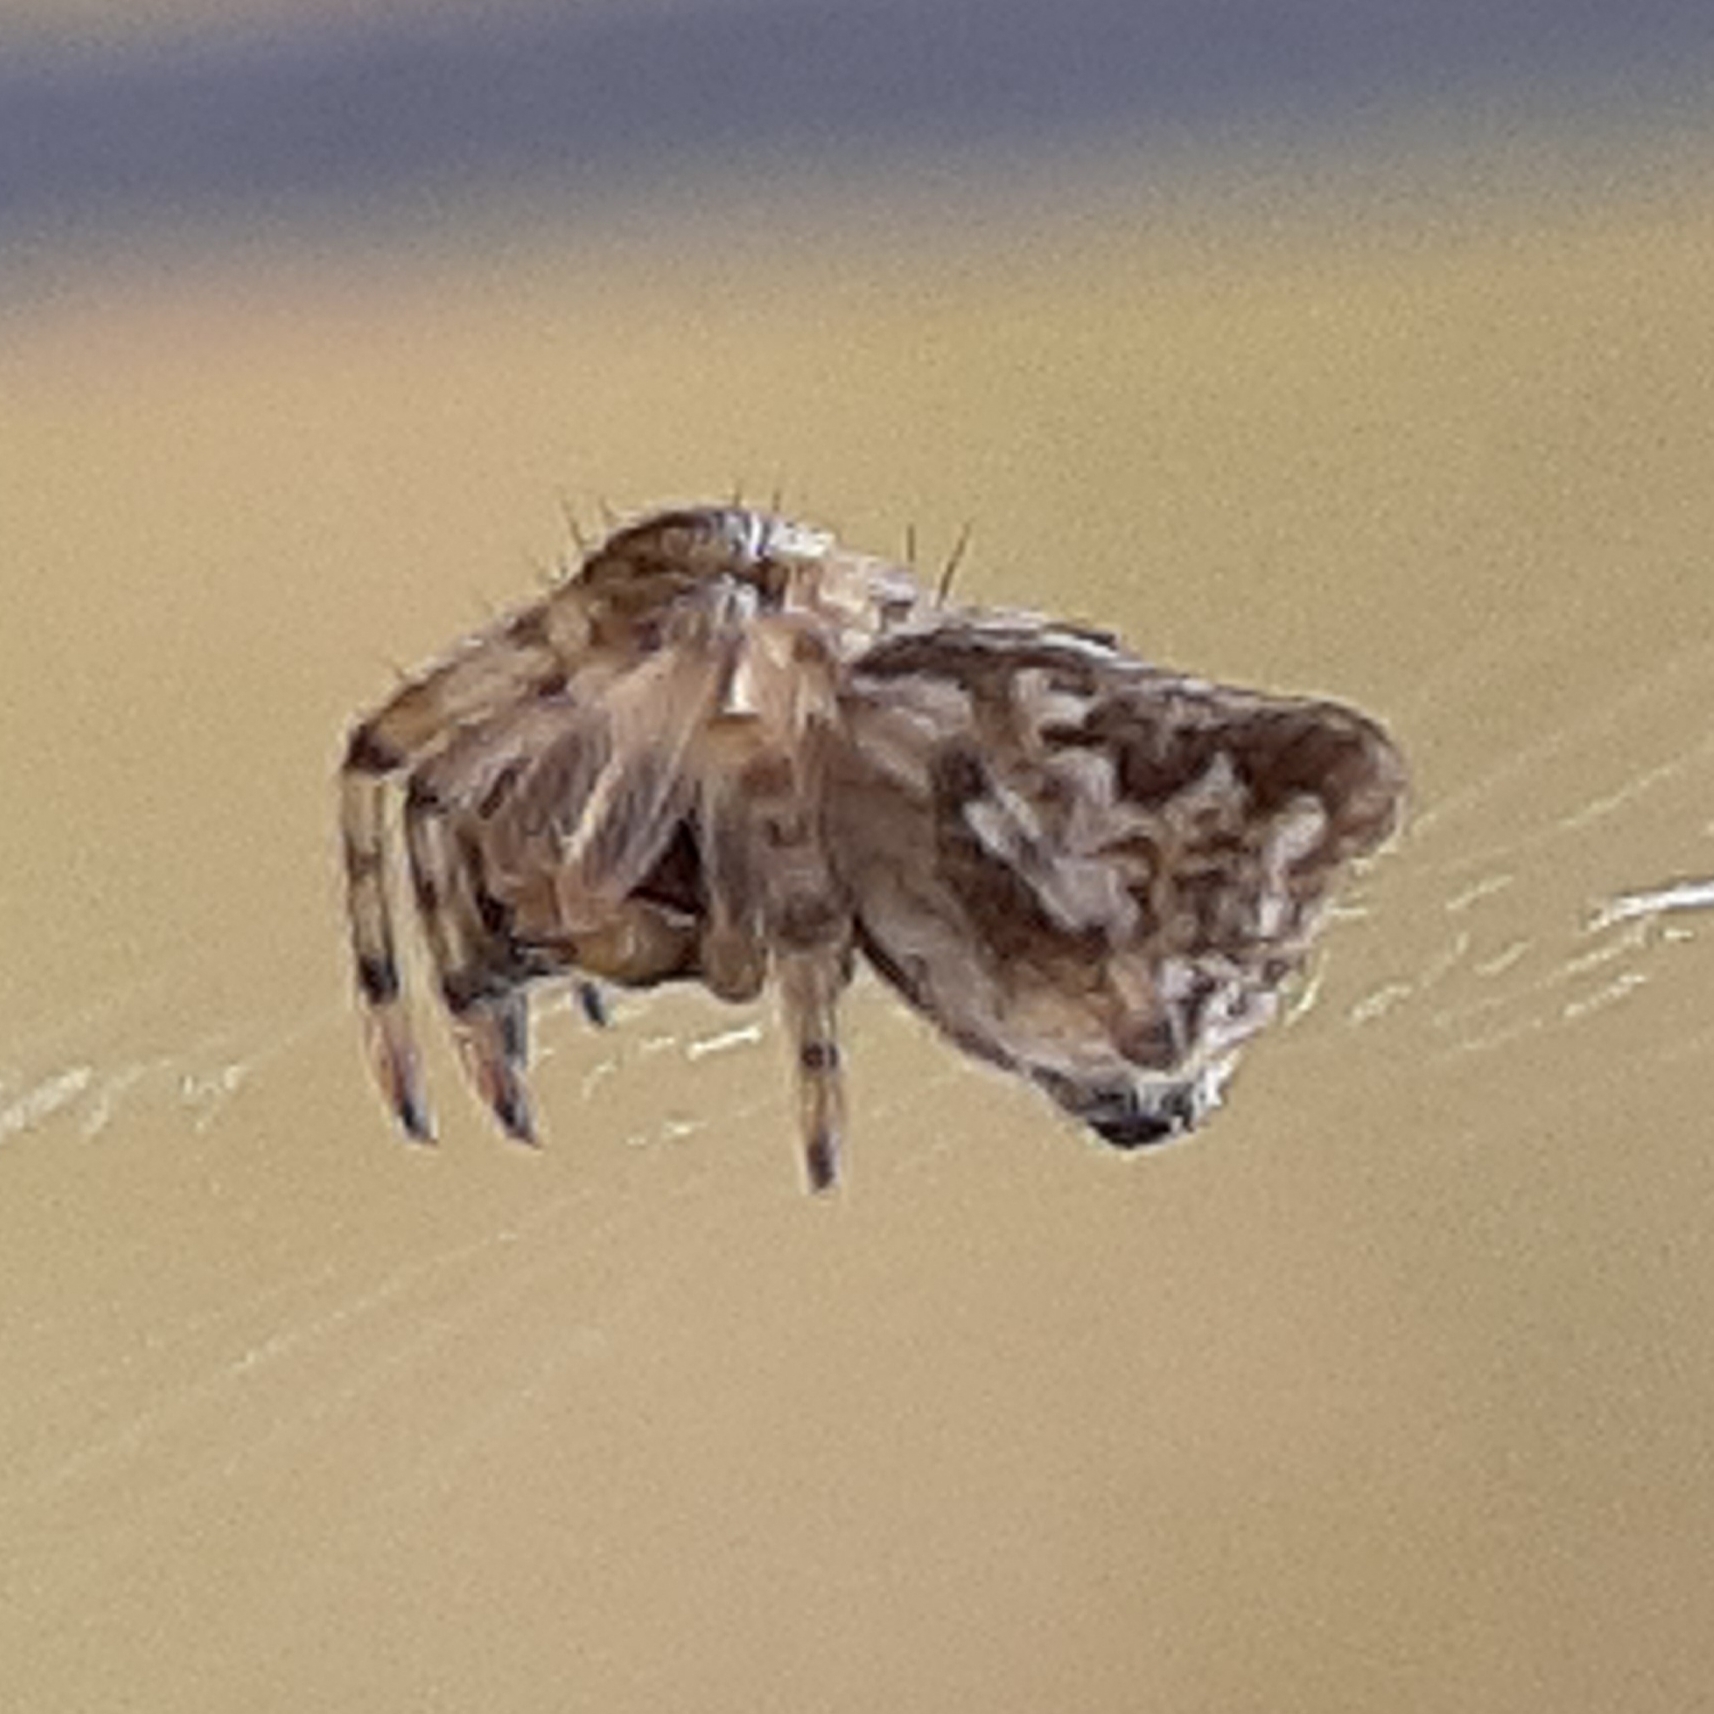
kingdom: Animalia
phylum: Arthropoda
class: Arachnida
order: Araneae
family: Araneidae
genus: Cyclosa
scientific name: Cyclosa conica
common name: Conical trashline orbweaver
